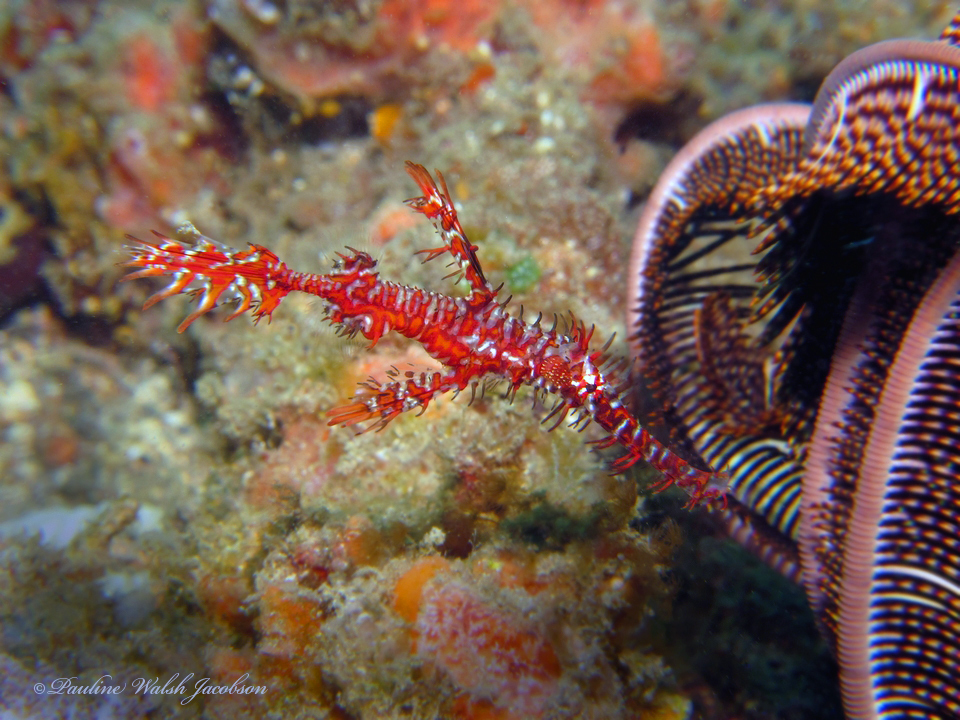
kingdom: Animalia
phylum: Chordata
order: Syngnathiformes
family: Solenostomidae
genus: Solenostomus
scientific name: Solenostomus paradoxus
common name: Ghost pipefish
